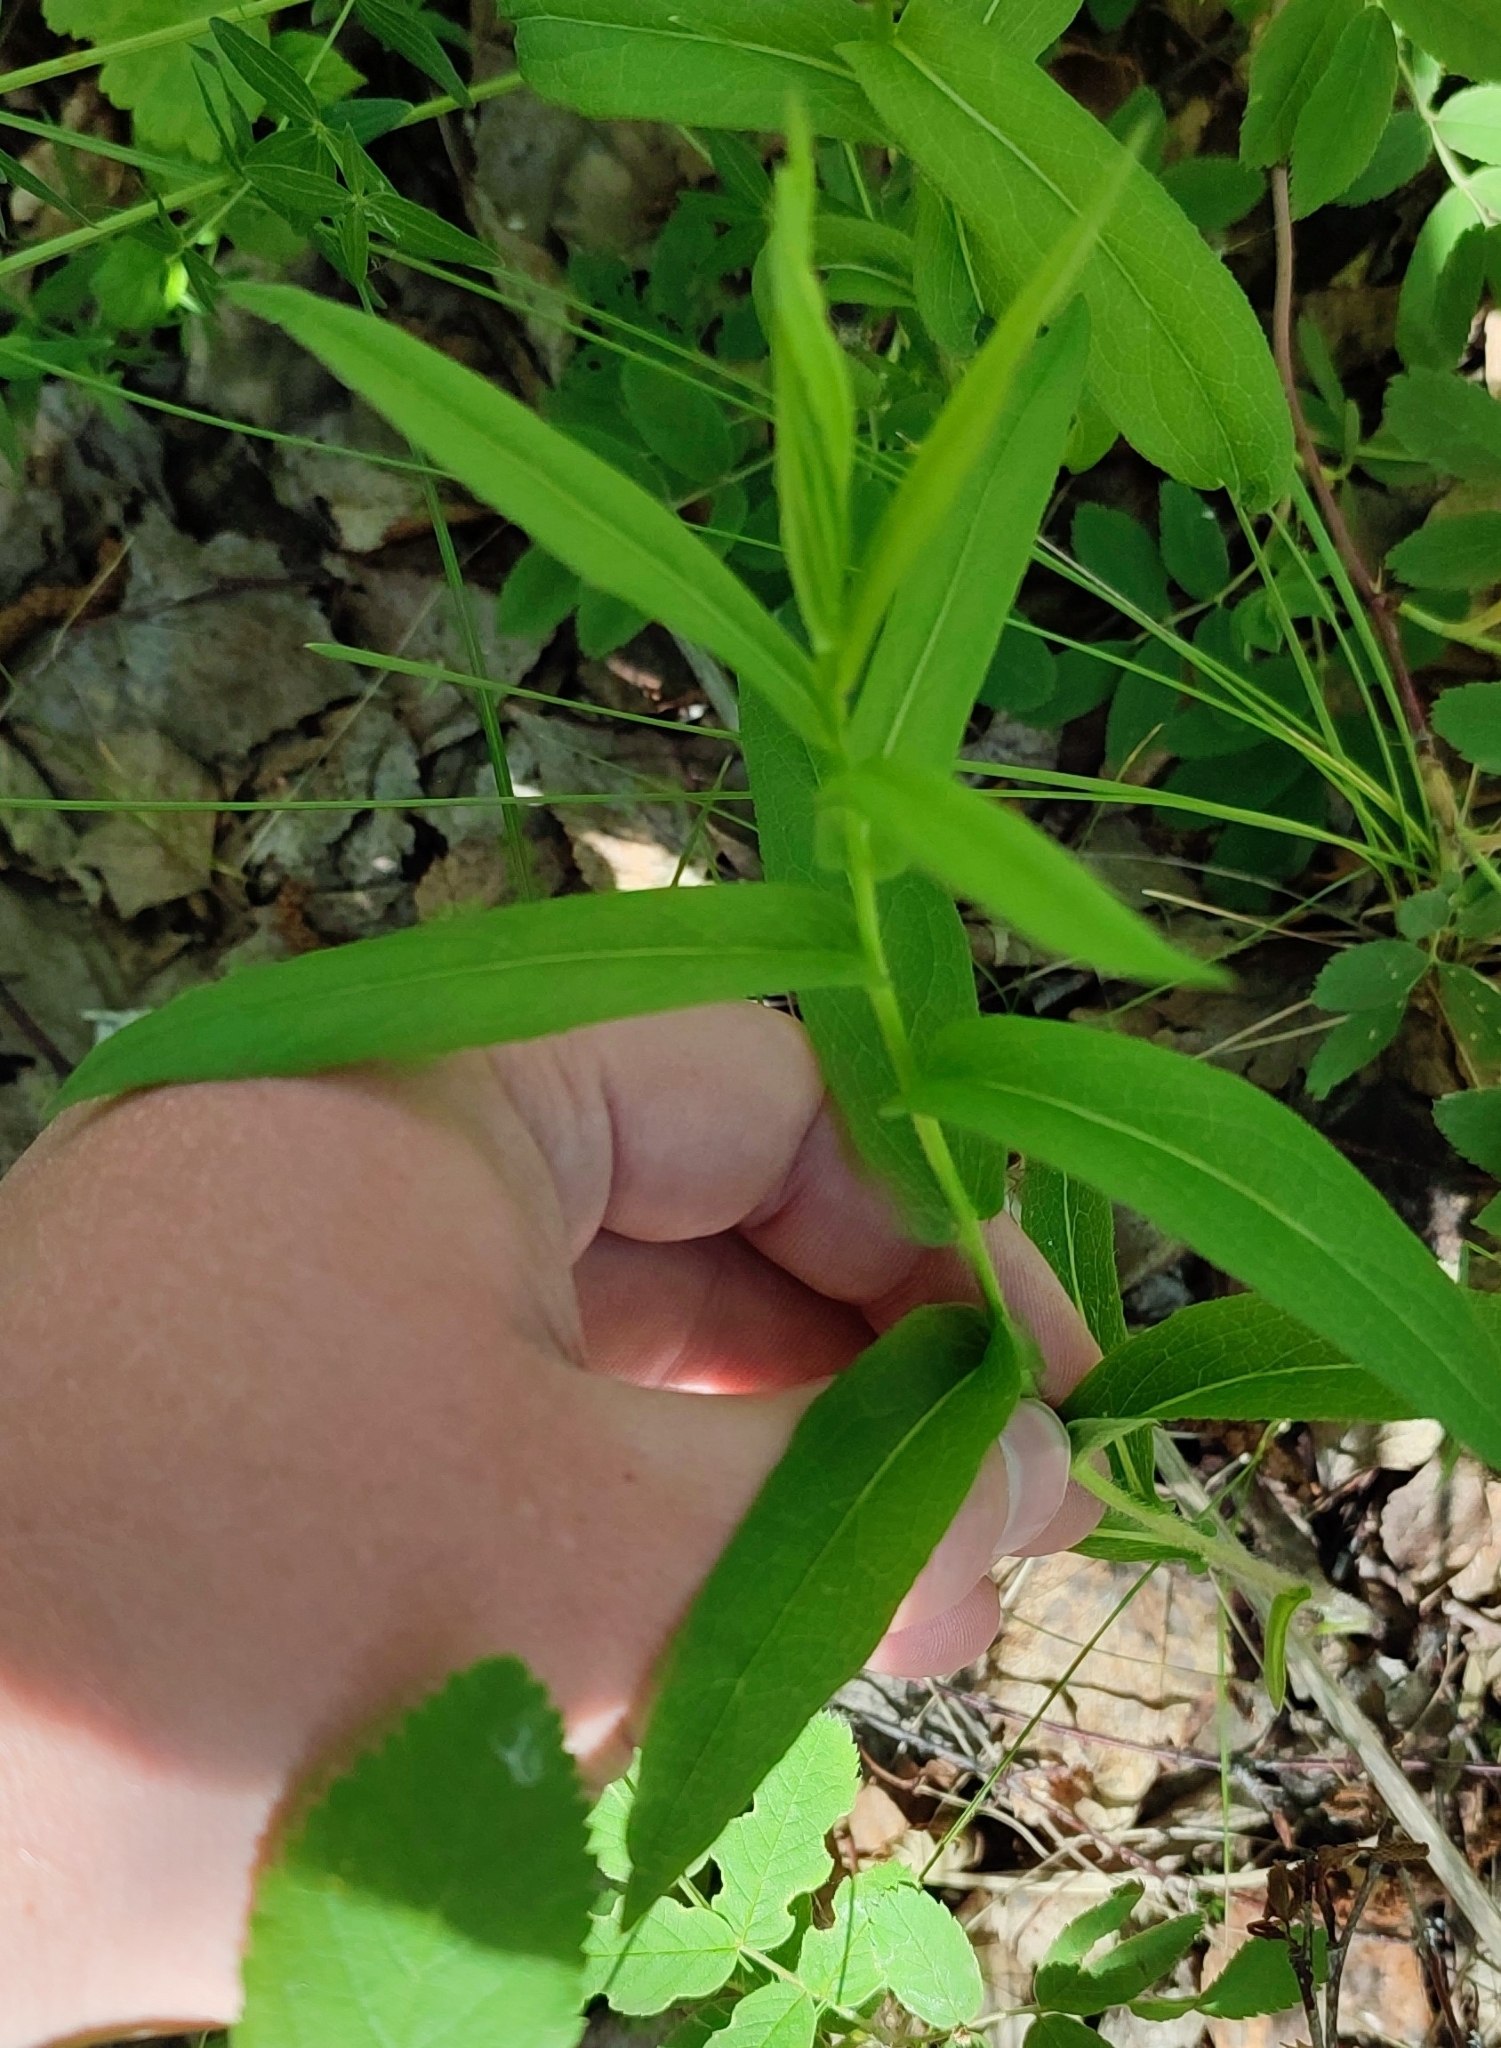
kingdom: Plantae
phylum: Tracheophyta
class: Magnoliopsida
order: Asterales
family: Asteraceae
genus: Pentanema
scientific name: Pentanema salicinum
